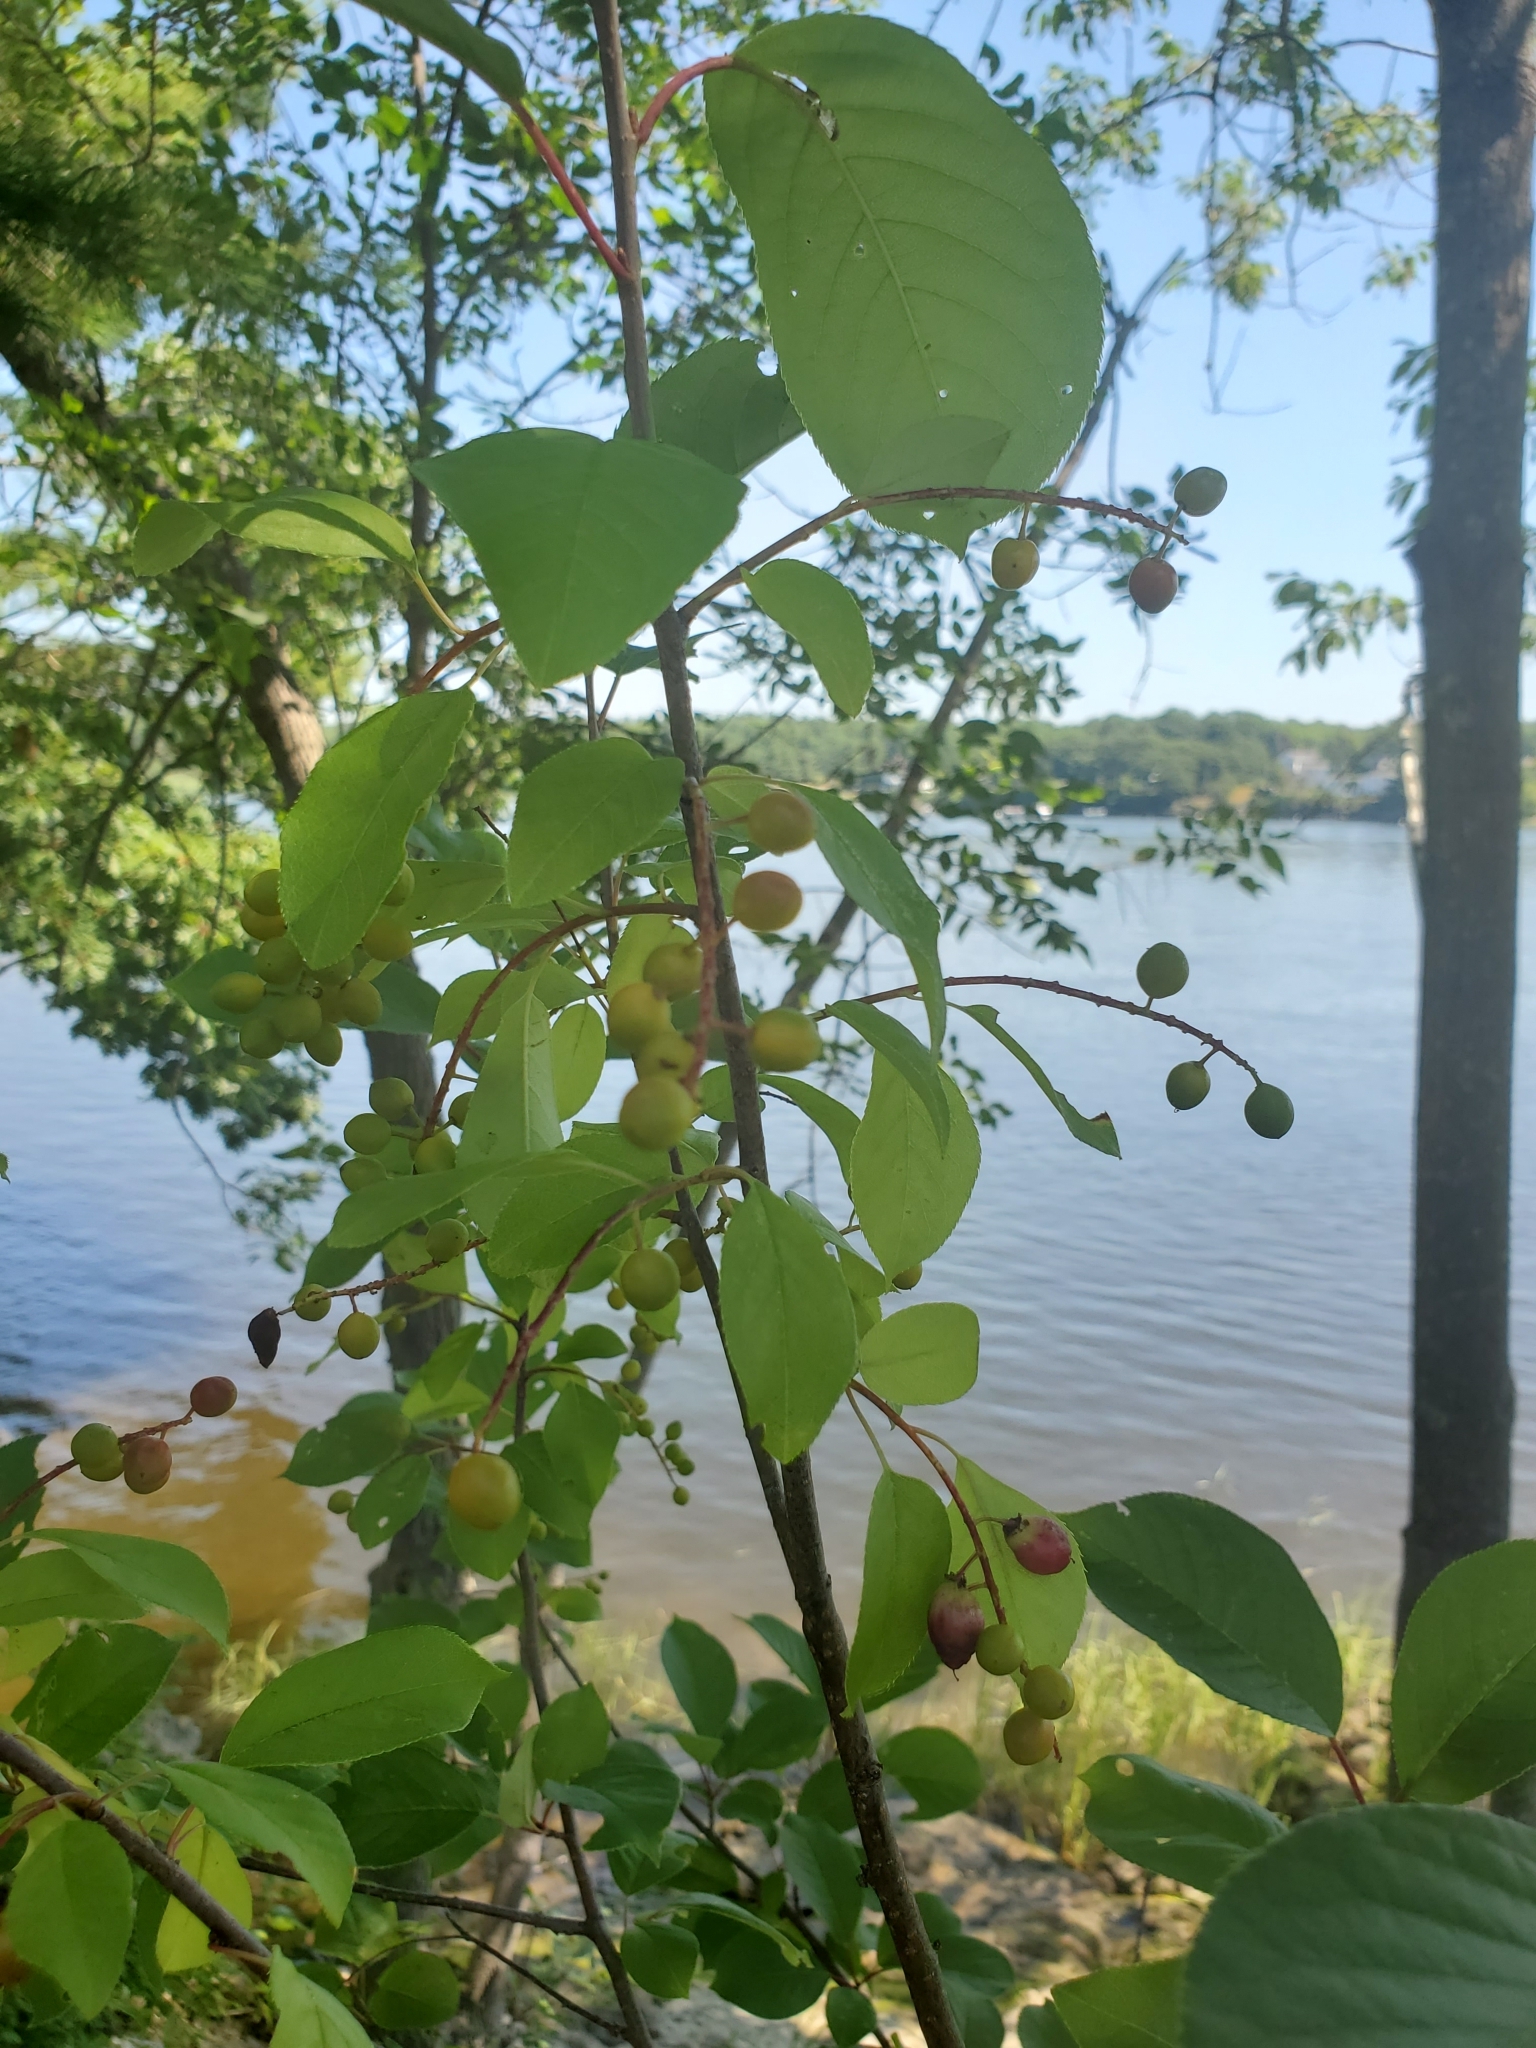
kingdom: Plantae
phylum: Tracheophyta
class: Magnoliopsida
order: Rosales
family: Rosaceae
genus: Prunus
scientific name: Prunus virginiana
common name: Chokecherry
